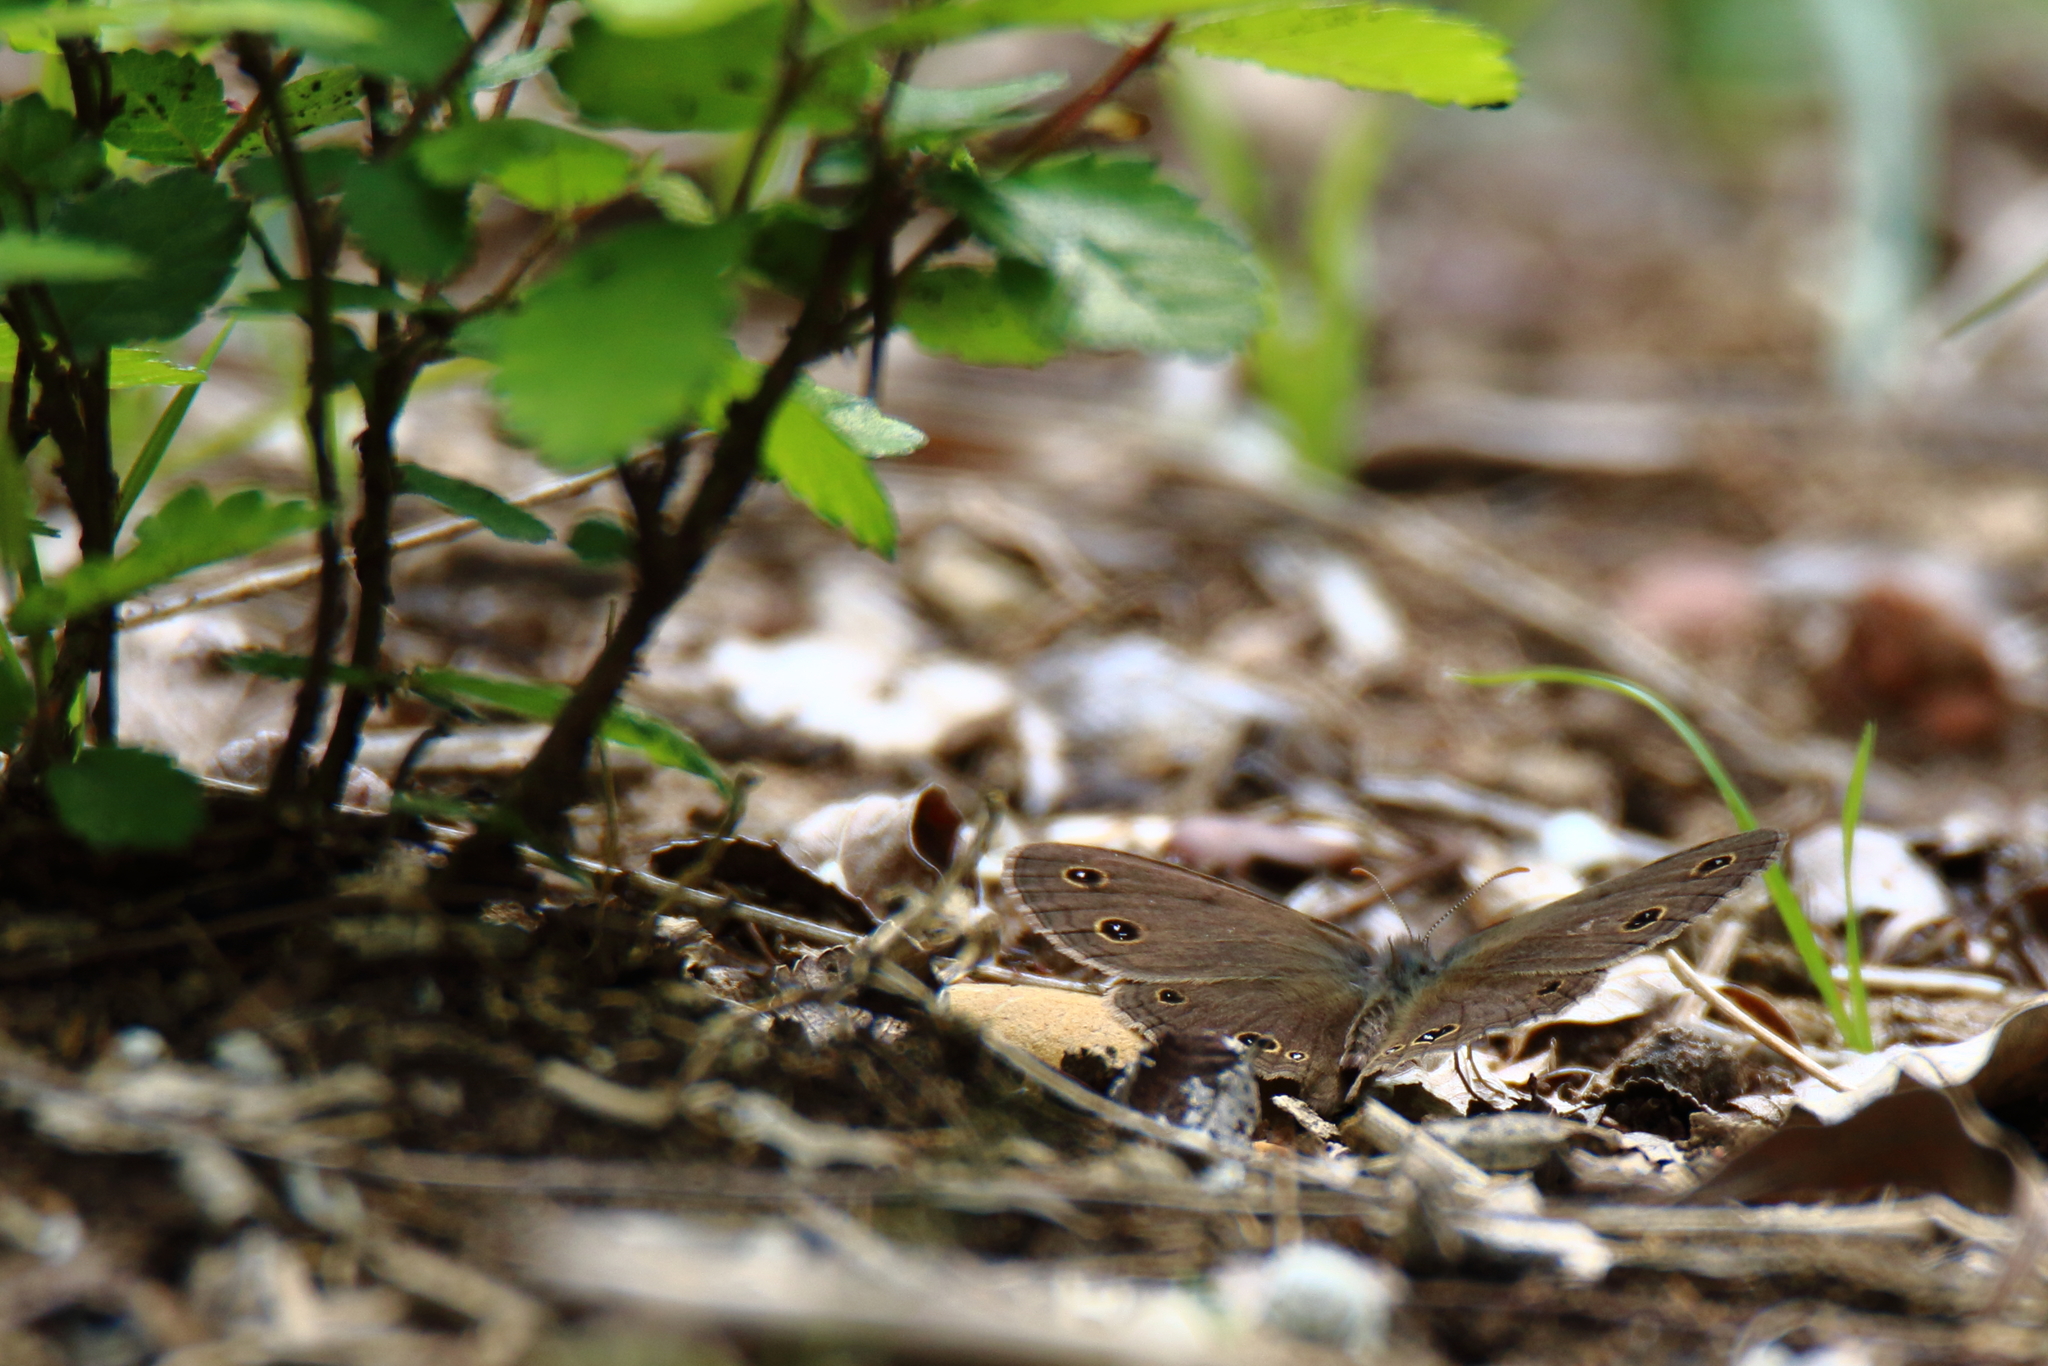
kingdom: Animalia
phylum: Arthropoda
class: Insecta
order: Lepidoptera
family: Nymphalidae
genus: Euptychia
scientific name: Euptychia cymela
